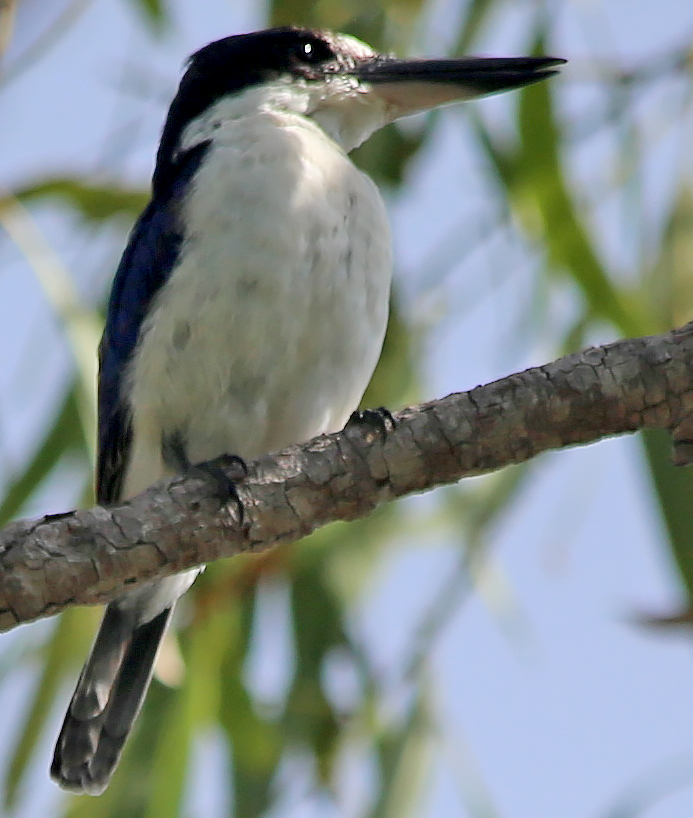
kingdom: Animalia
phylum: Chordata
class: Aves
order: Coraciiformes
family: Alcedinidae
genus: Todiramphus
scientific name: Todiramphus macleayii
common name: Forest kingfisher
